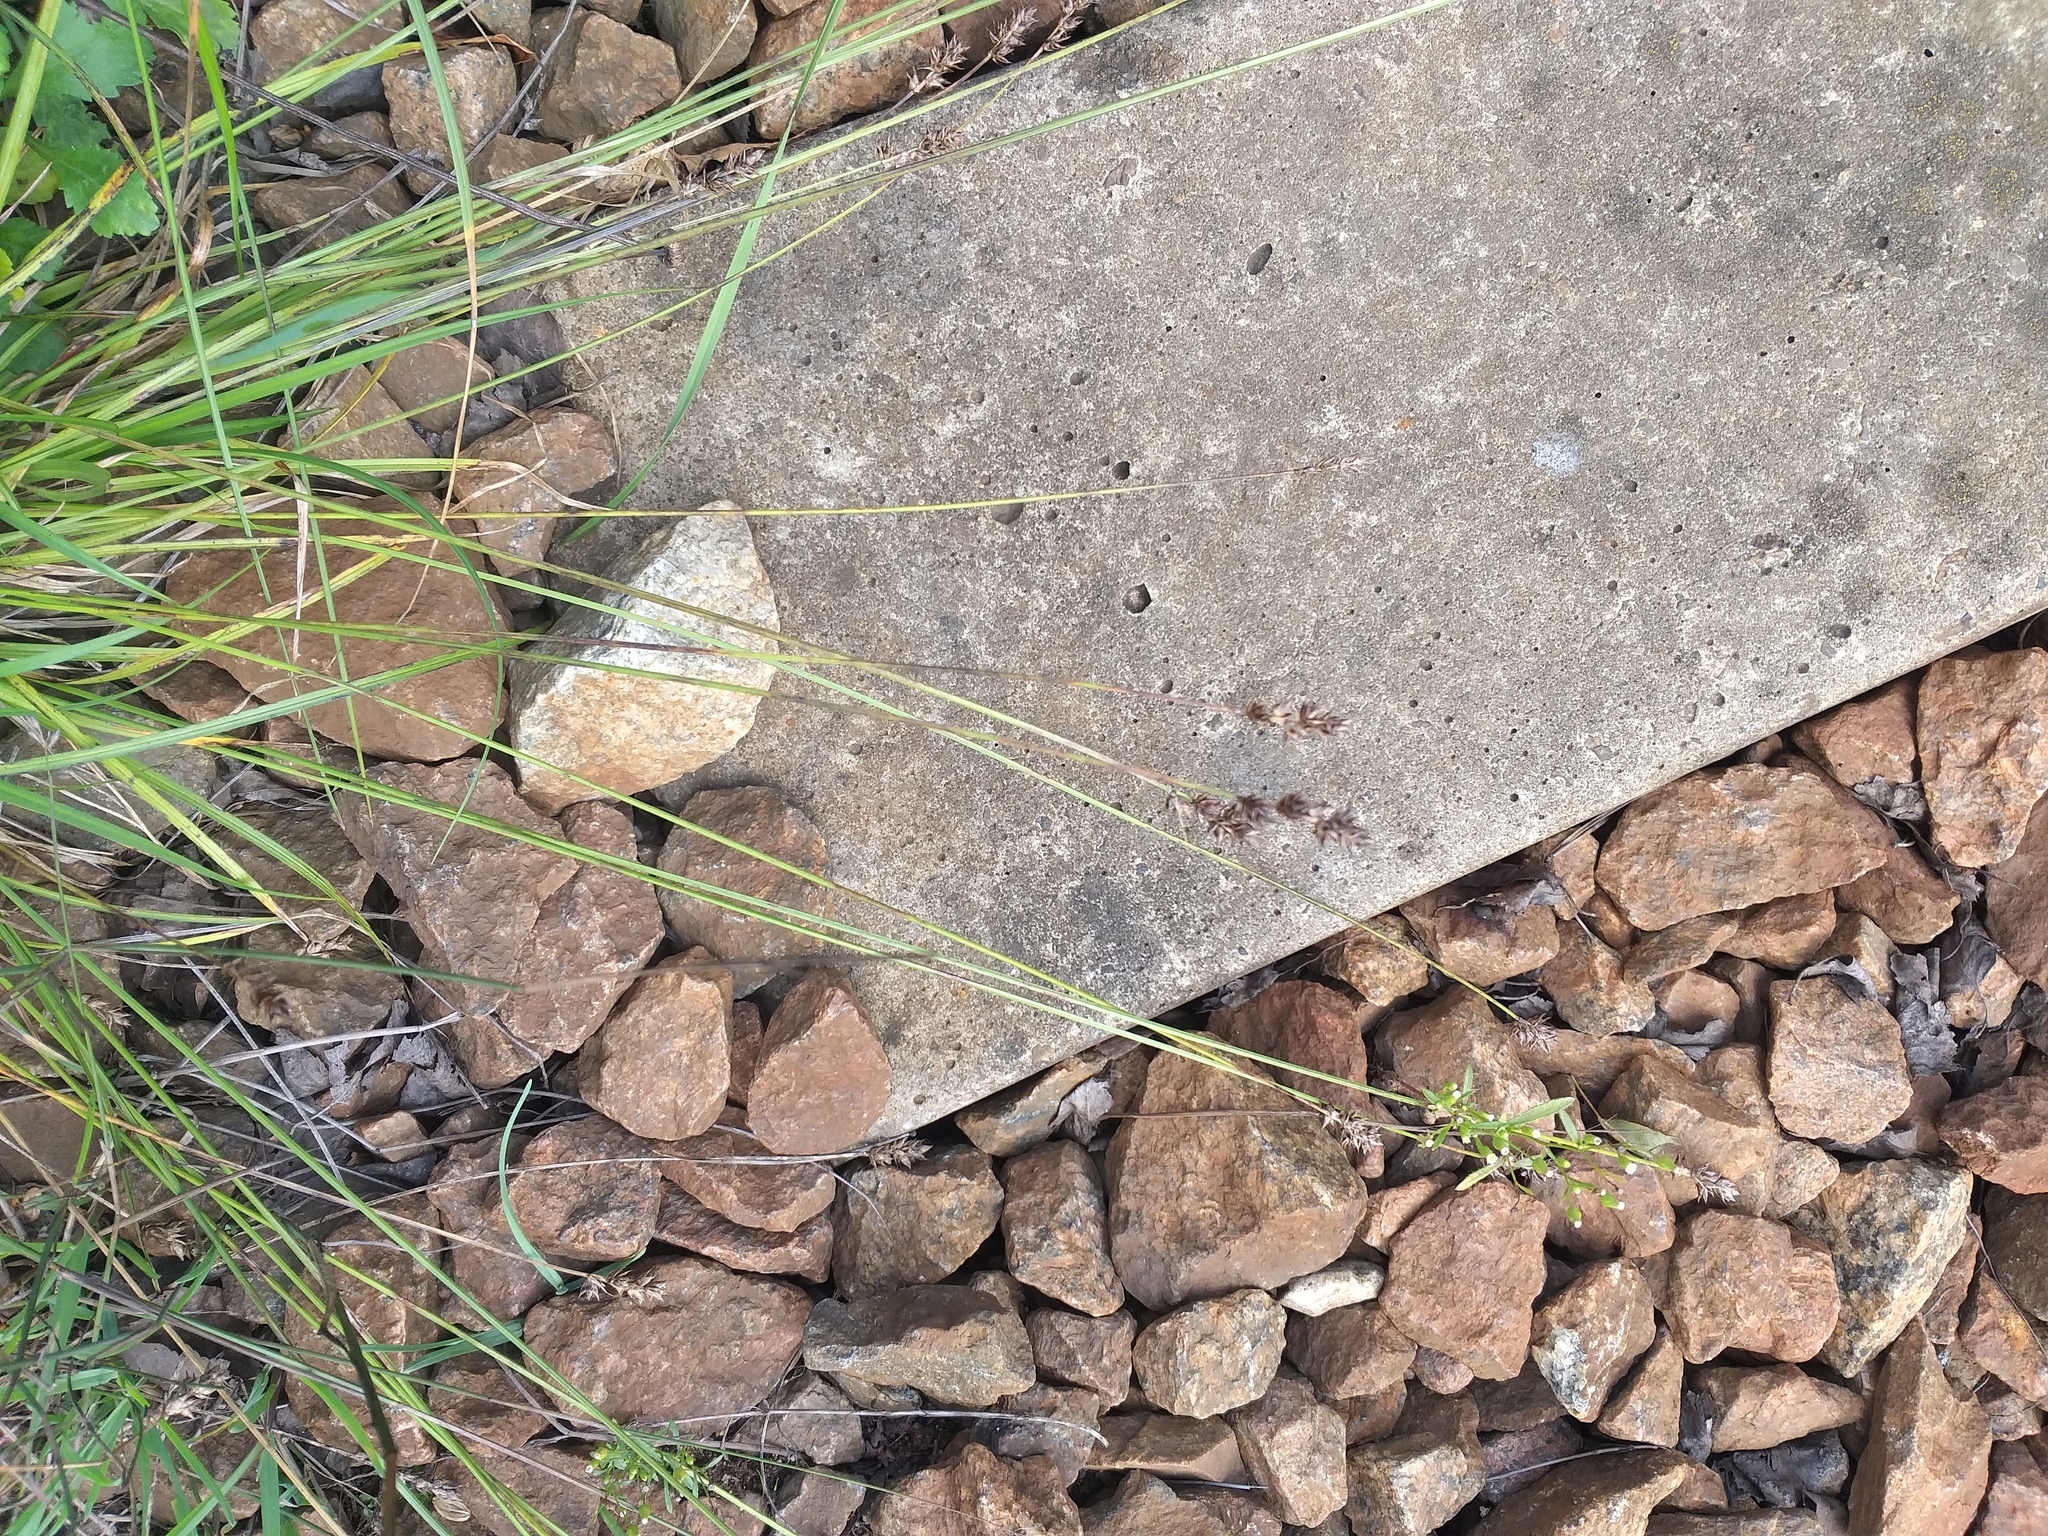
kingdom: Plantae
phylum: Tracheophyta
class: Liliopsida
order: Poales
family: Cyperaceae
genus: Carex
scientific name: Carex spicata
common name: Spiked sedge
